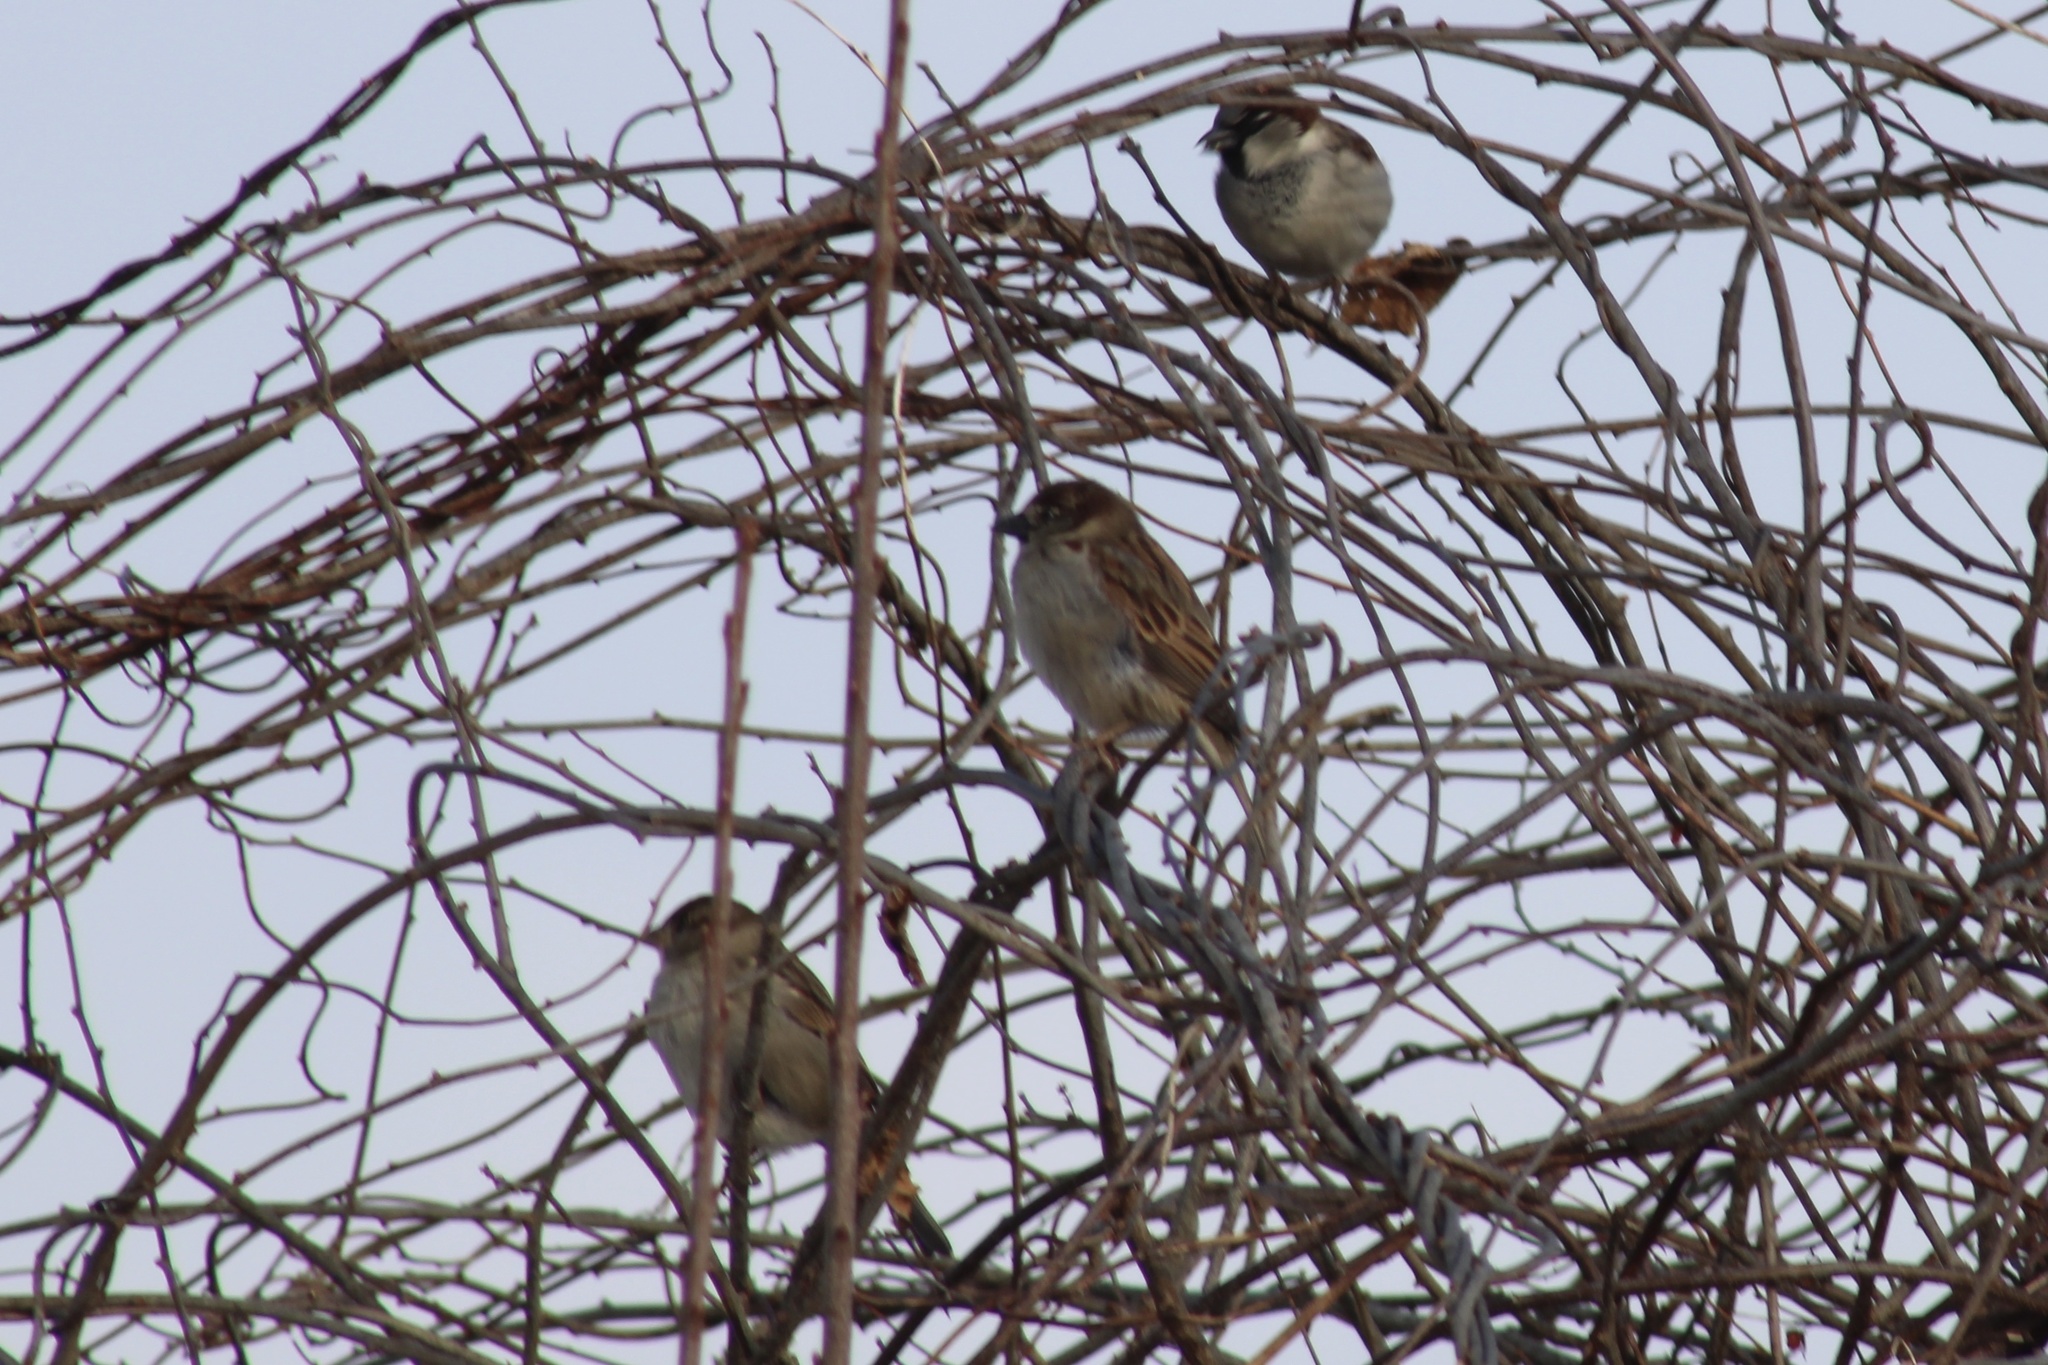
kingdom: Animalia
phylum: Chordata
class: Aves
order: Passeriformes
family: Passeridae
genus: Passer
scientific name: Passer domesticus
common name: House sparrow
